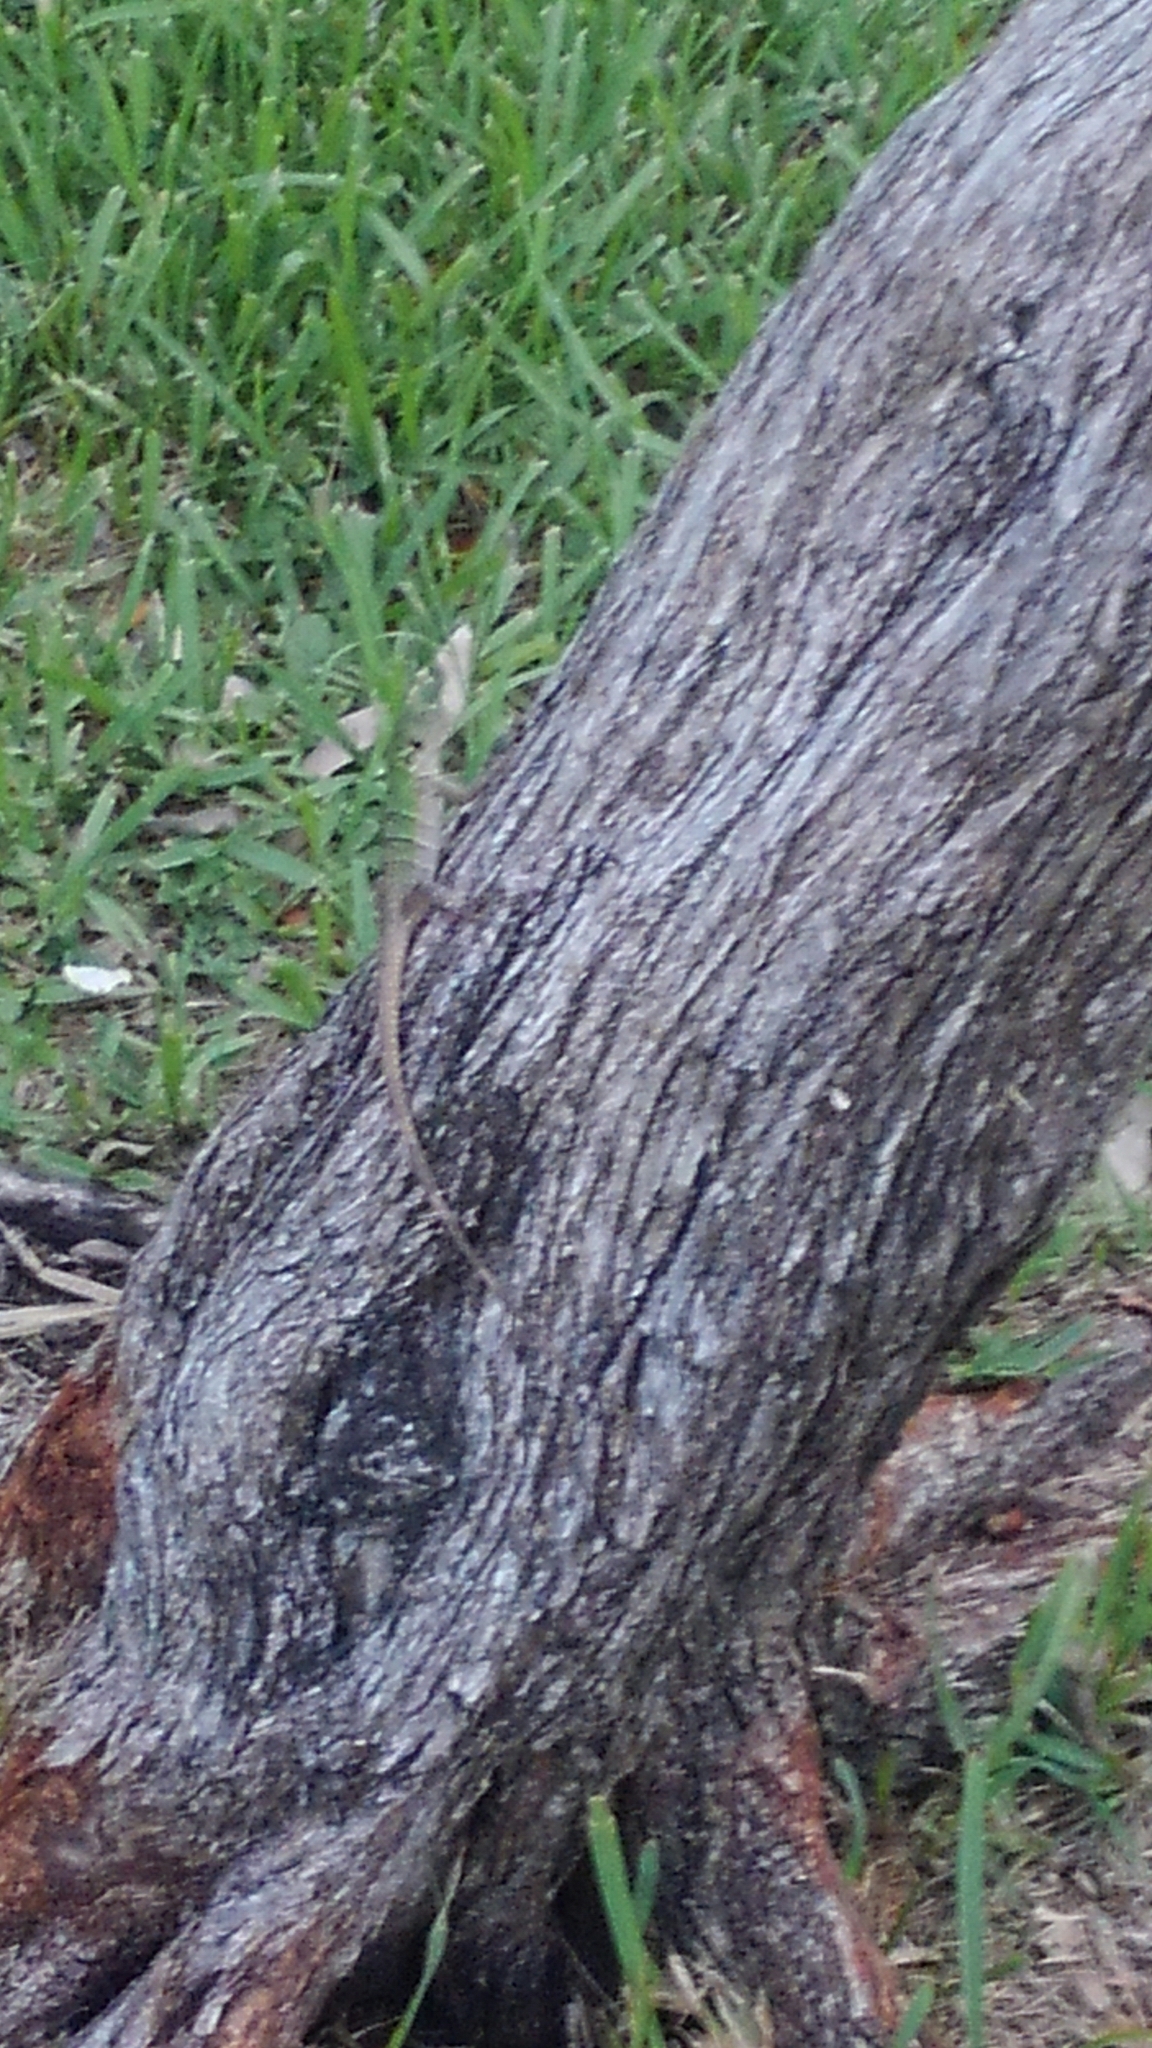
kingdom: Animalia
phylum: Chordata
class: Squamata
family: Iguanidae
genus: Ctenosaura
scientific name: Ctenosaura similis
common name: Black spiny-tailed iguana
